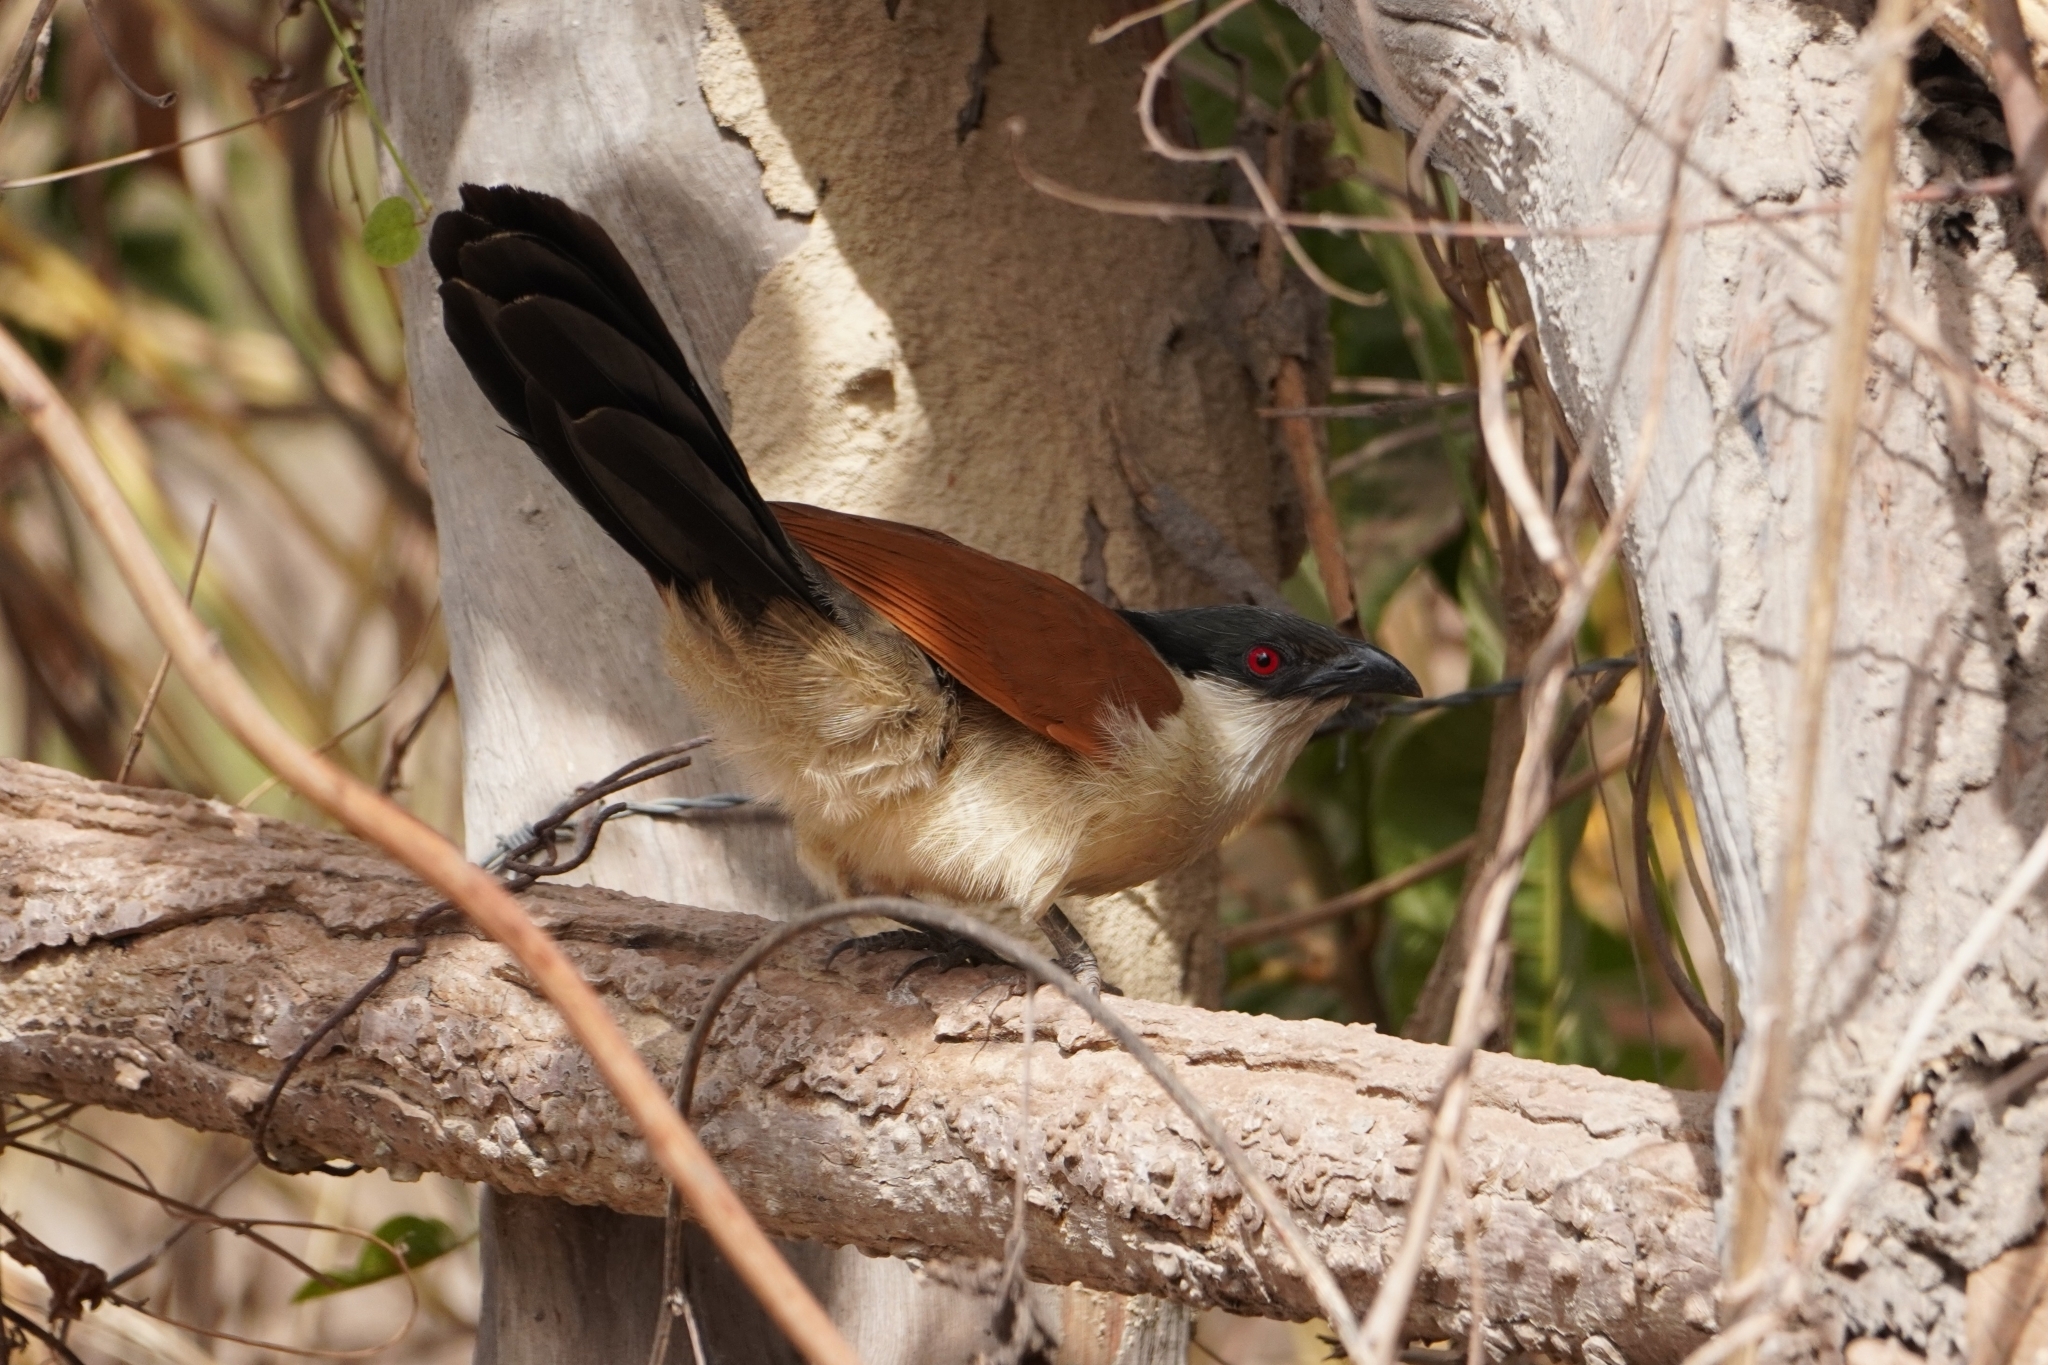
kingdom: Animalia
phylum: Chordata
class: Aves
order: Cuculiformes
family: Cuculidae
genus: Centropus
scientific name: Centropus senegalensis
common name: Senegal coucal
